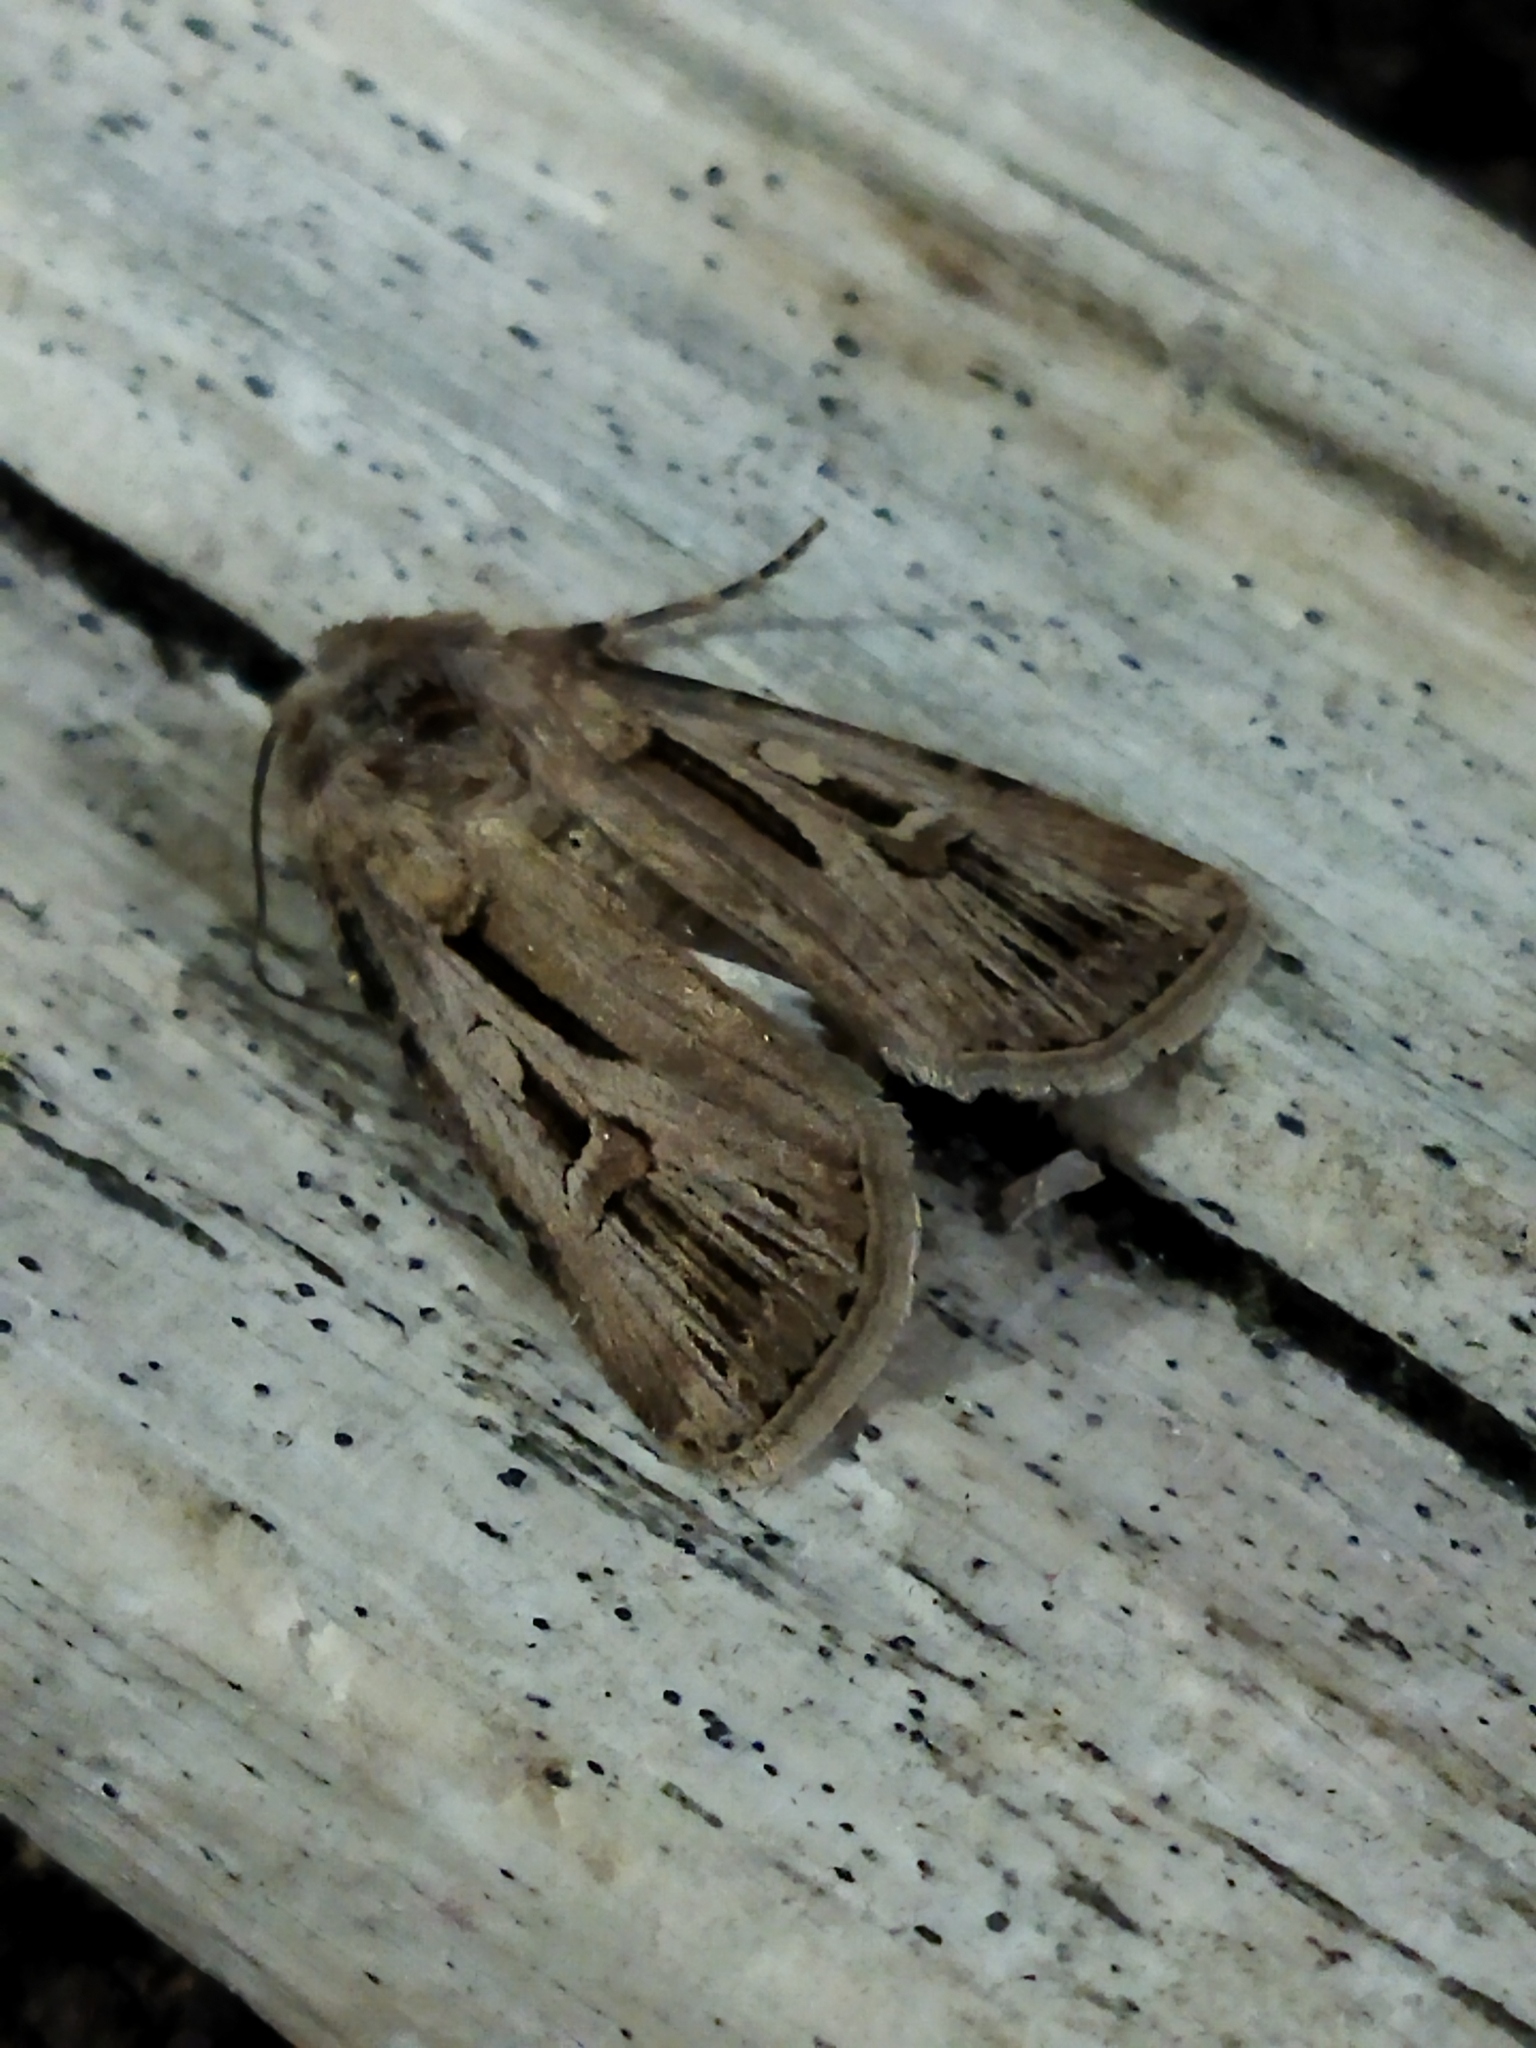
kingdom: Animalia
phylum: Arthropoda
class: Insecta
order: Lepidoptera
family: Noctuidae
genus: Agrotis
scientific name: Agrotis
